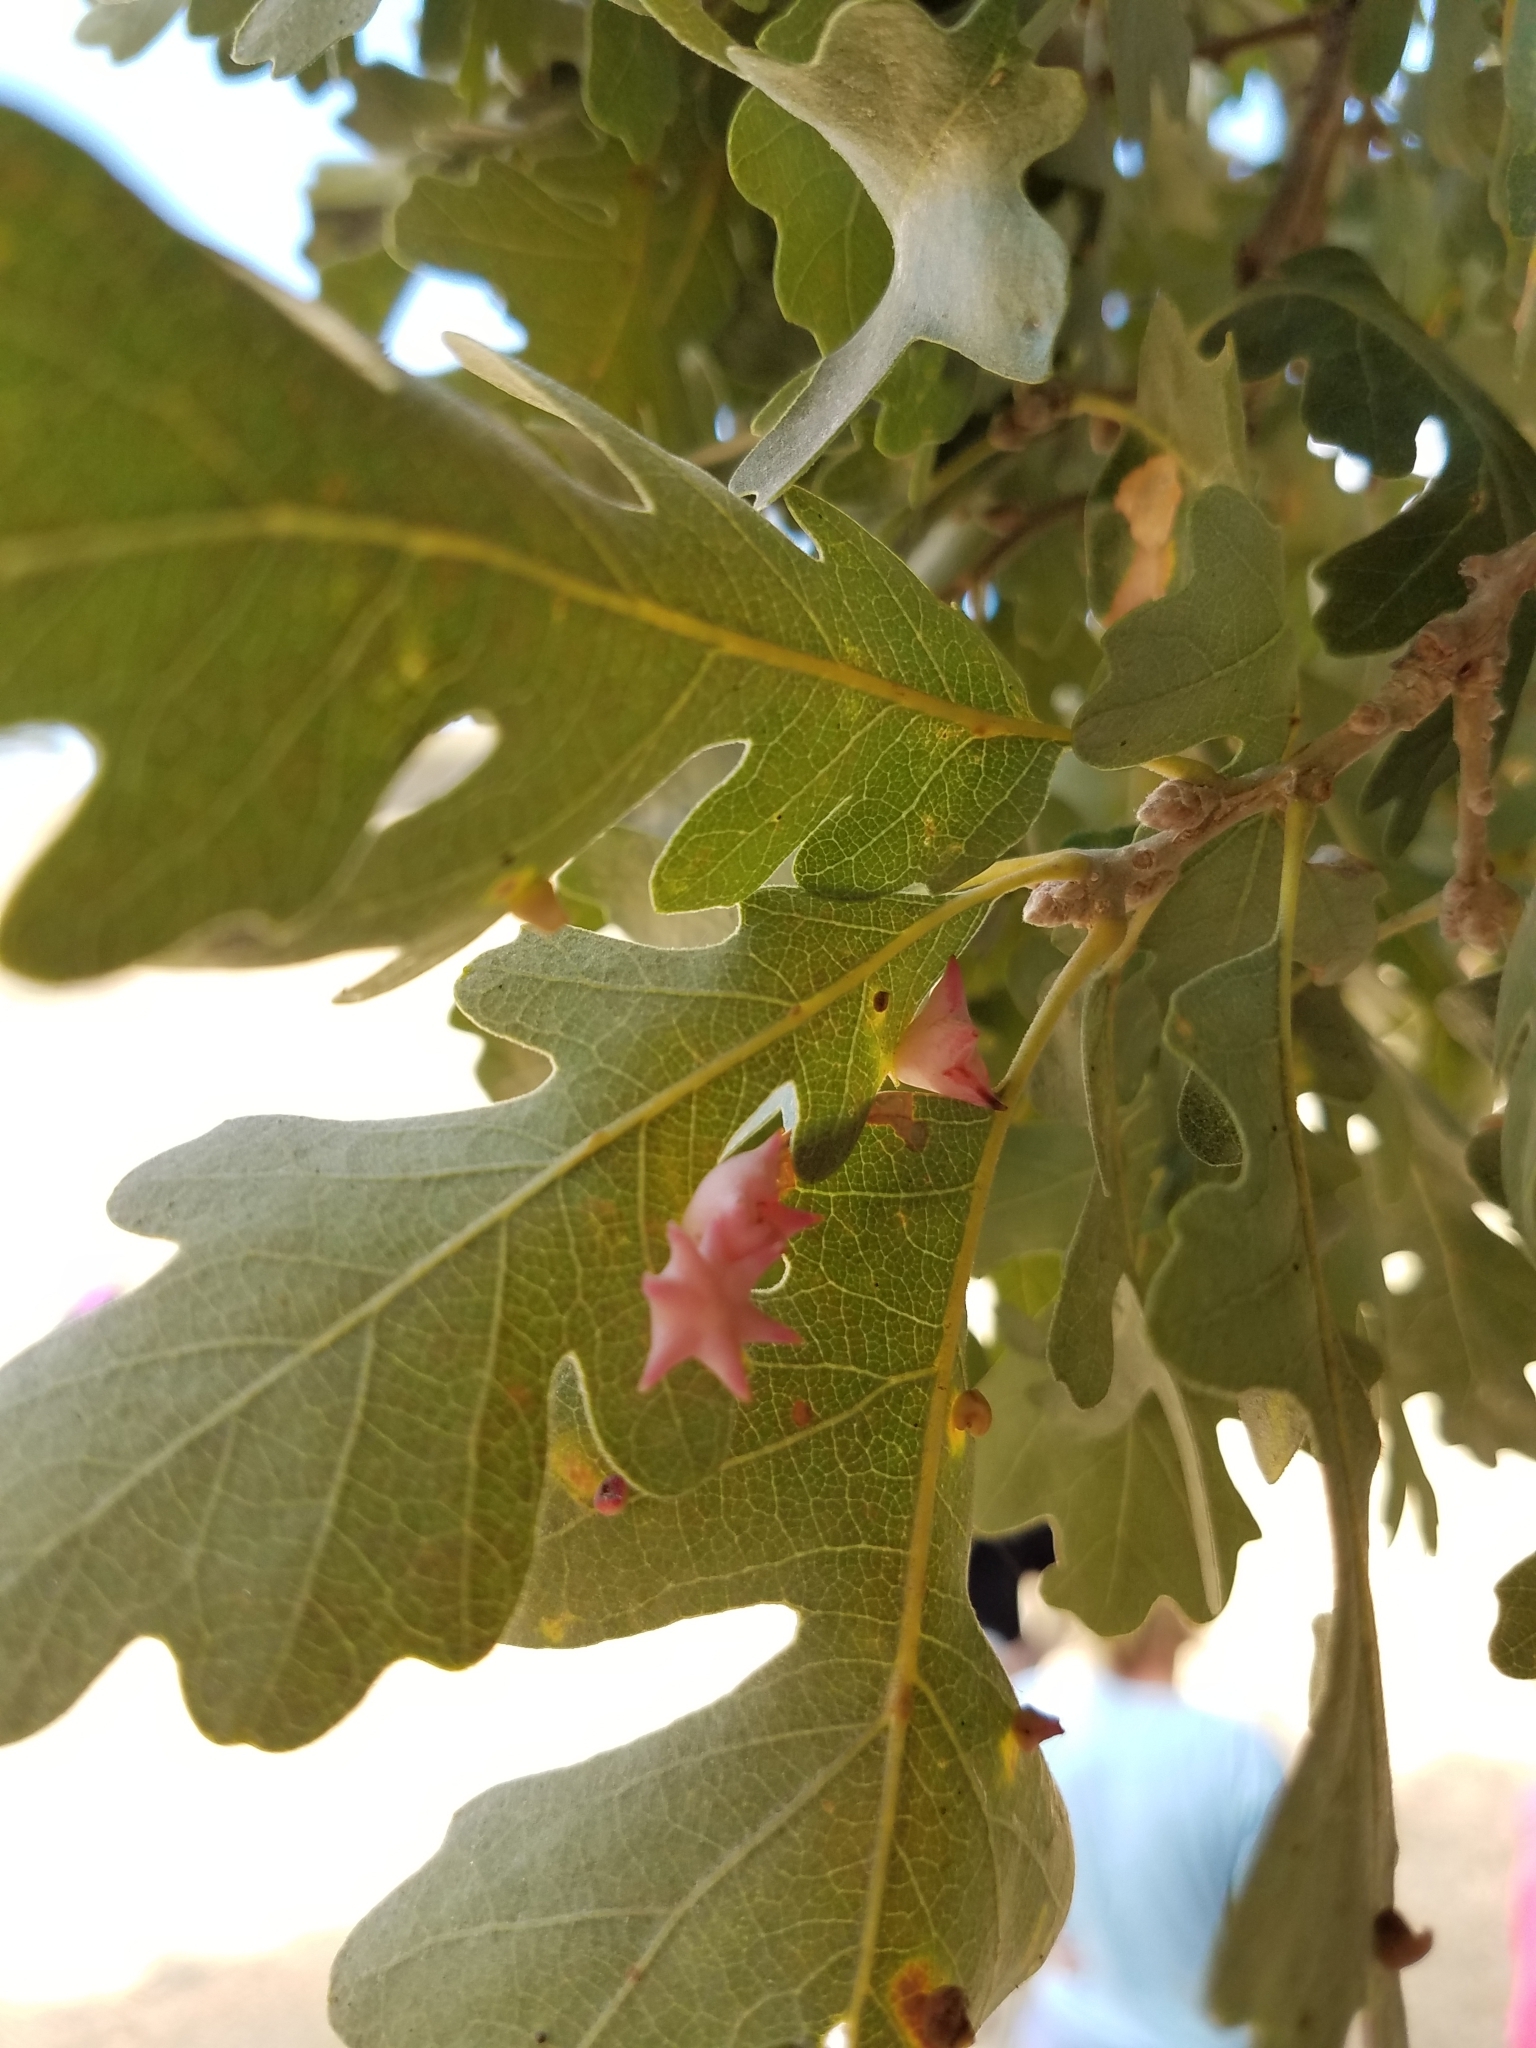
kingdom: Animalia
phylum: Arthropoda
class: Insecta
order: Hymenoptera
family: Cynipidae
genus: Cynips
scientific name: Cynips douglasi
